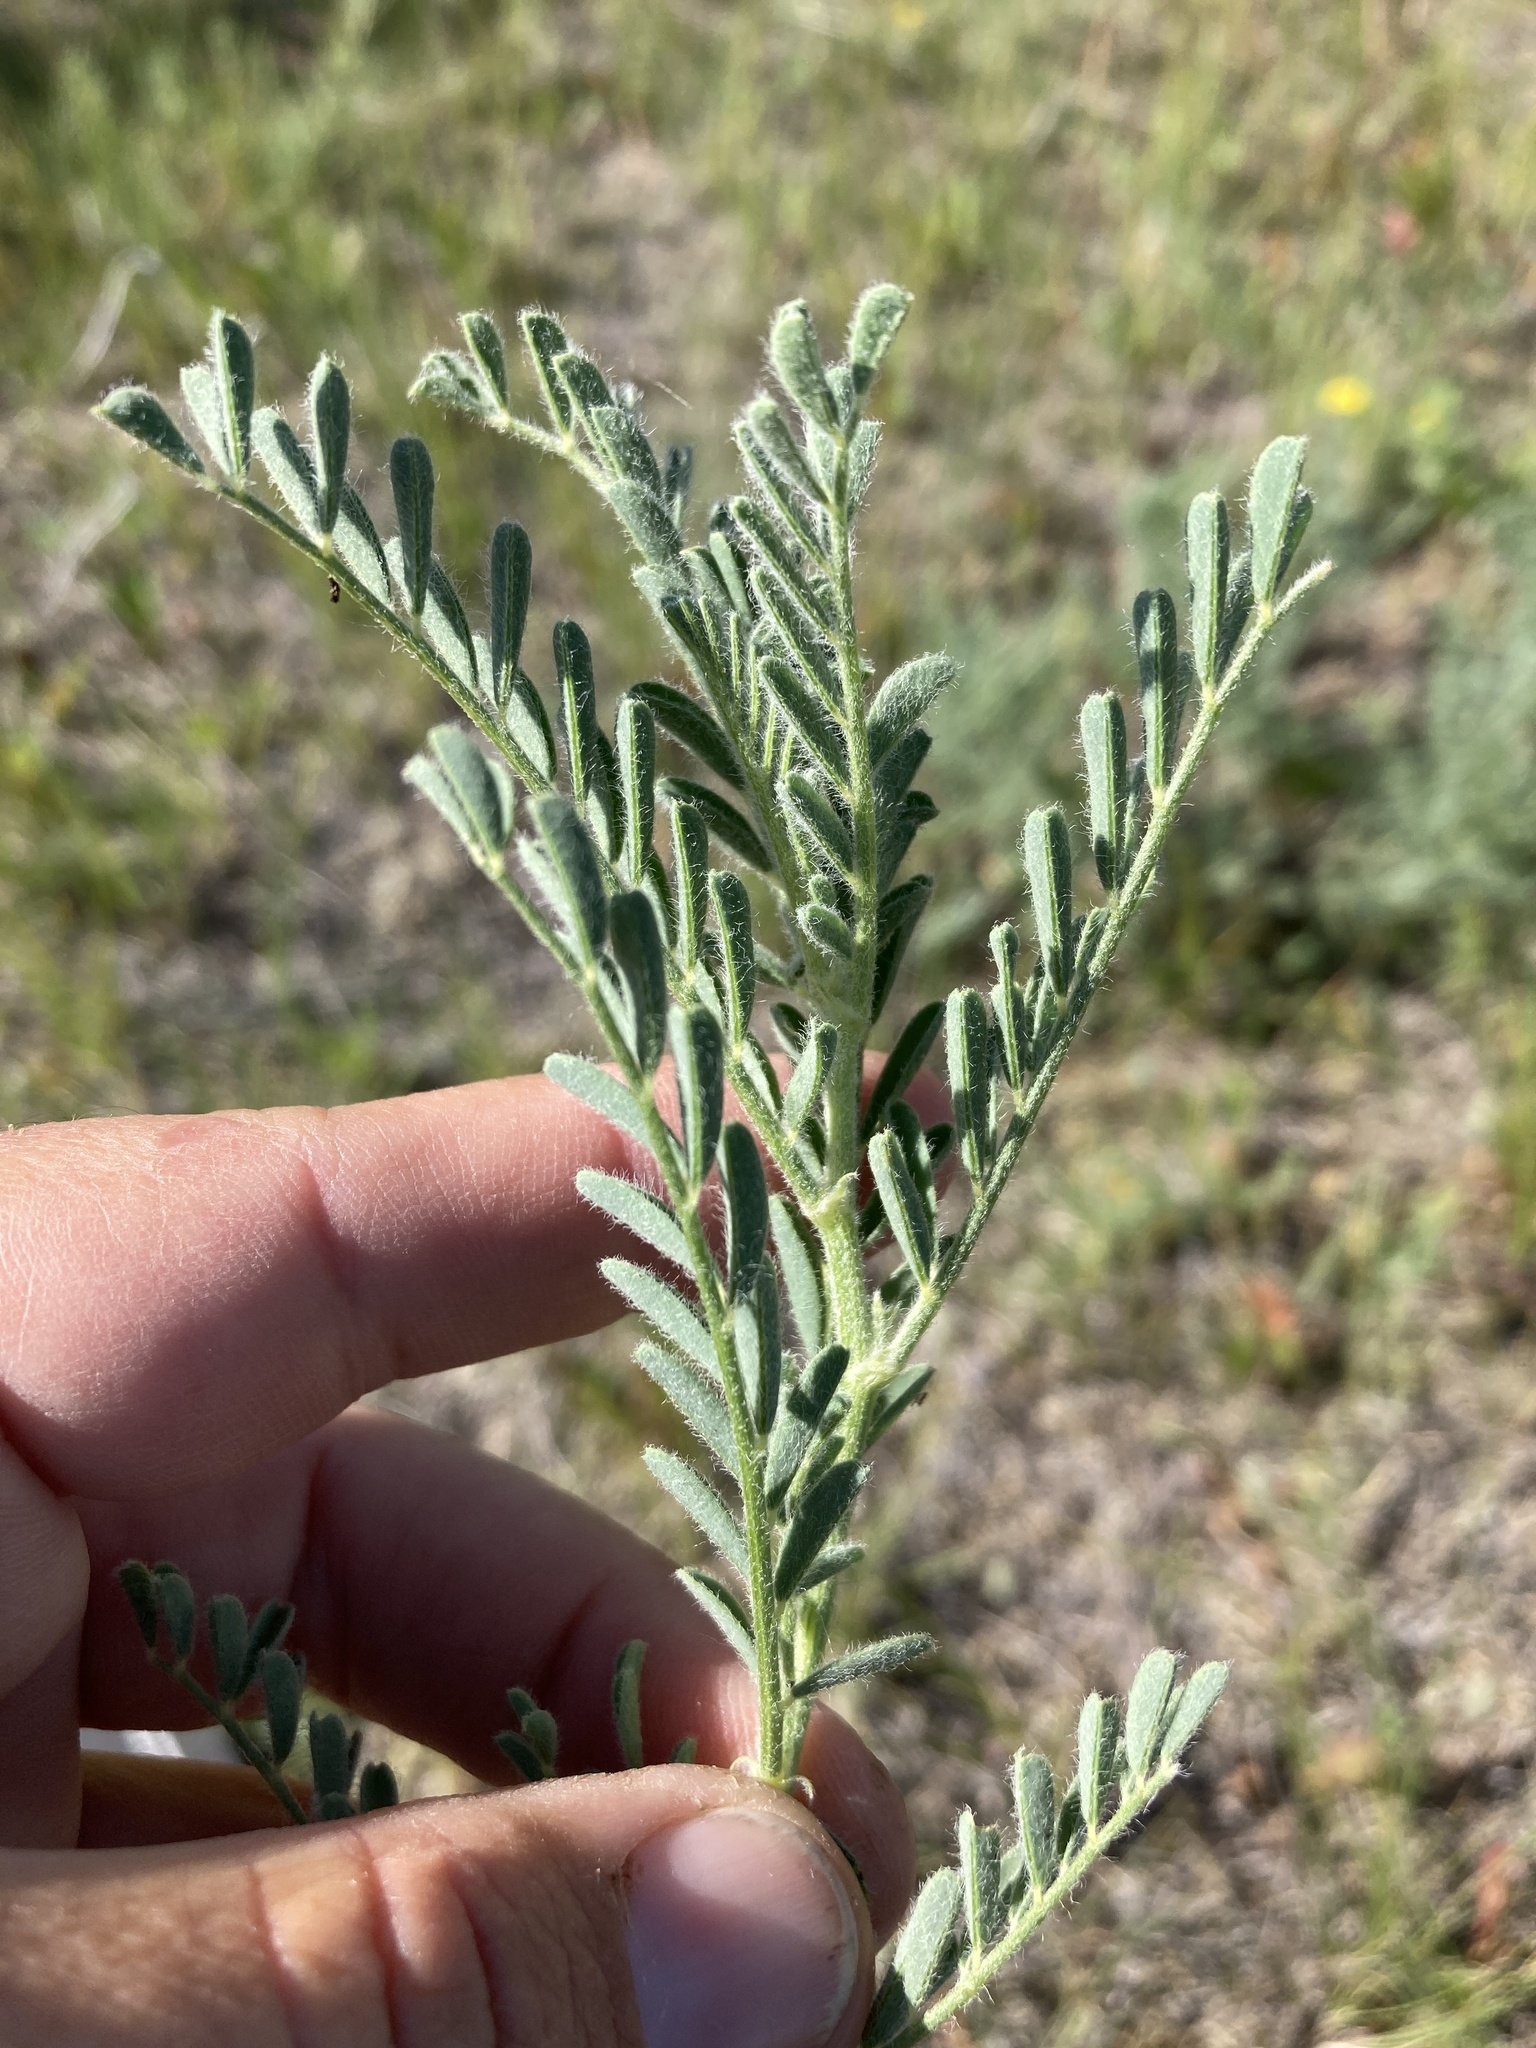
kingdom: Plantae
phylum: Tracheophyta
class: Magnoliopsida
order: Fabales
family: Fabaceae
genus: Astragalus
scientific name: Astragalus drummondii
